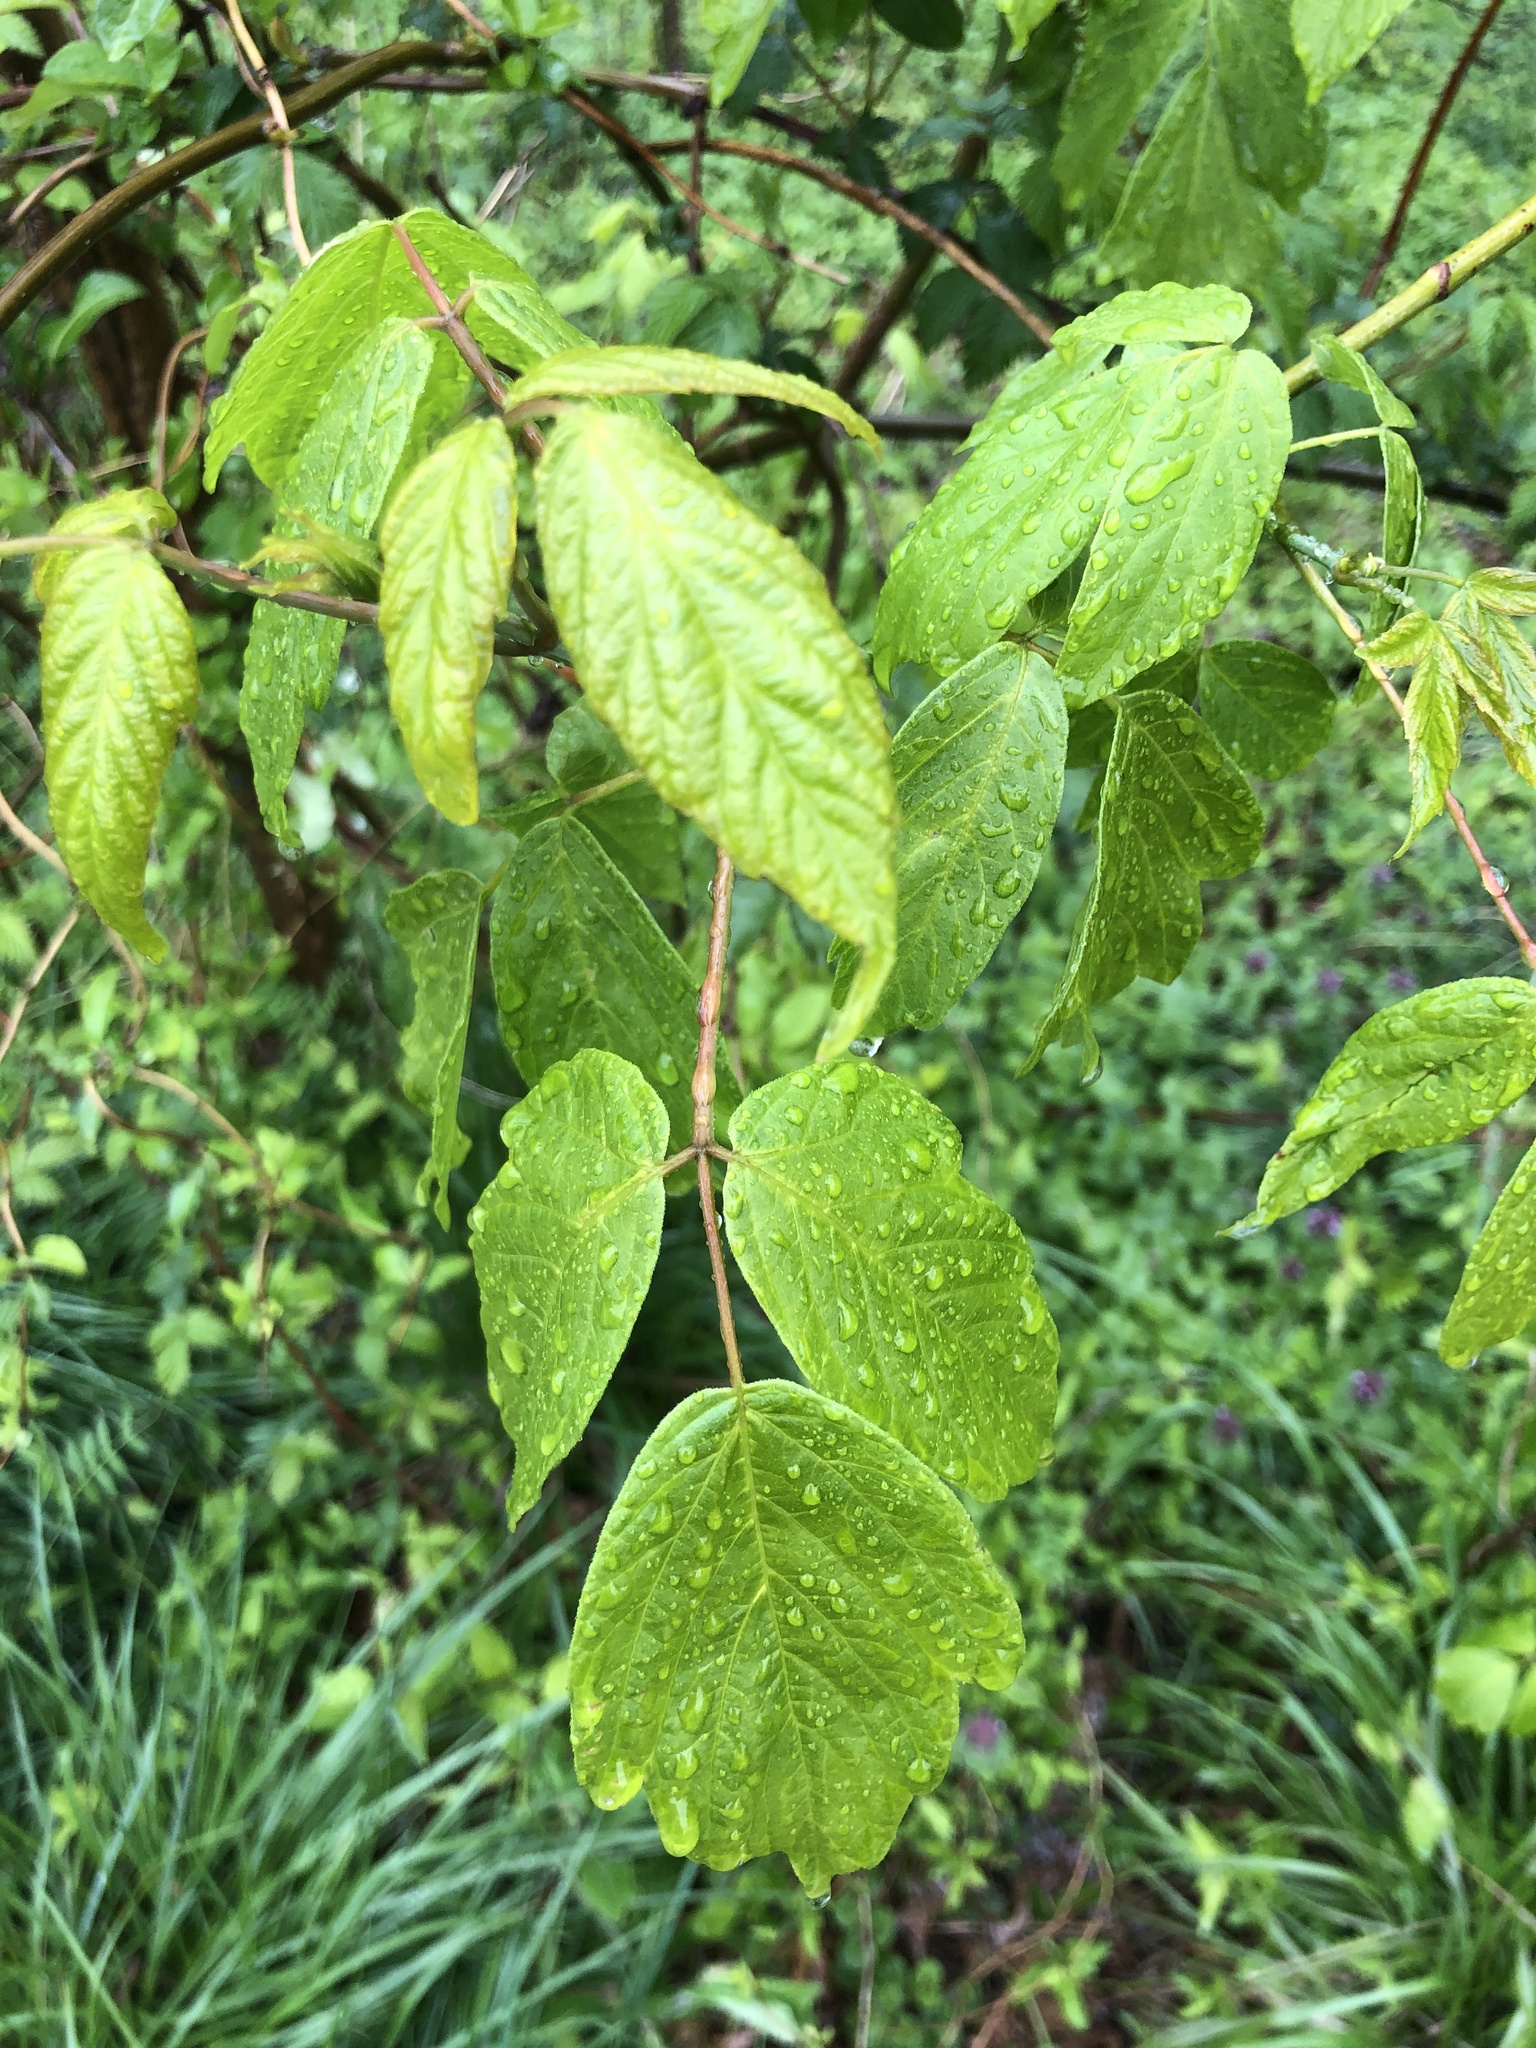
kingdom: Plantae
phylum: Tracheophyta
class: Magnoliopsida
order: Sapindales
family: Sapindaceae
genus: Acer
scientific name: Acer negundo
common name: Ashleaf maple
